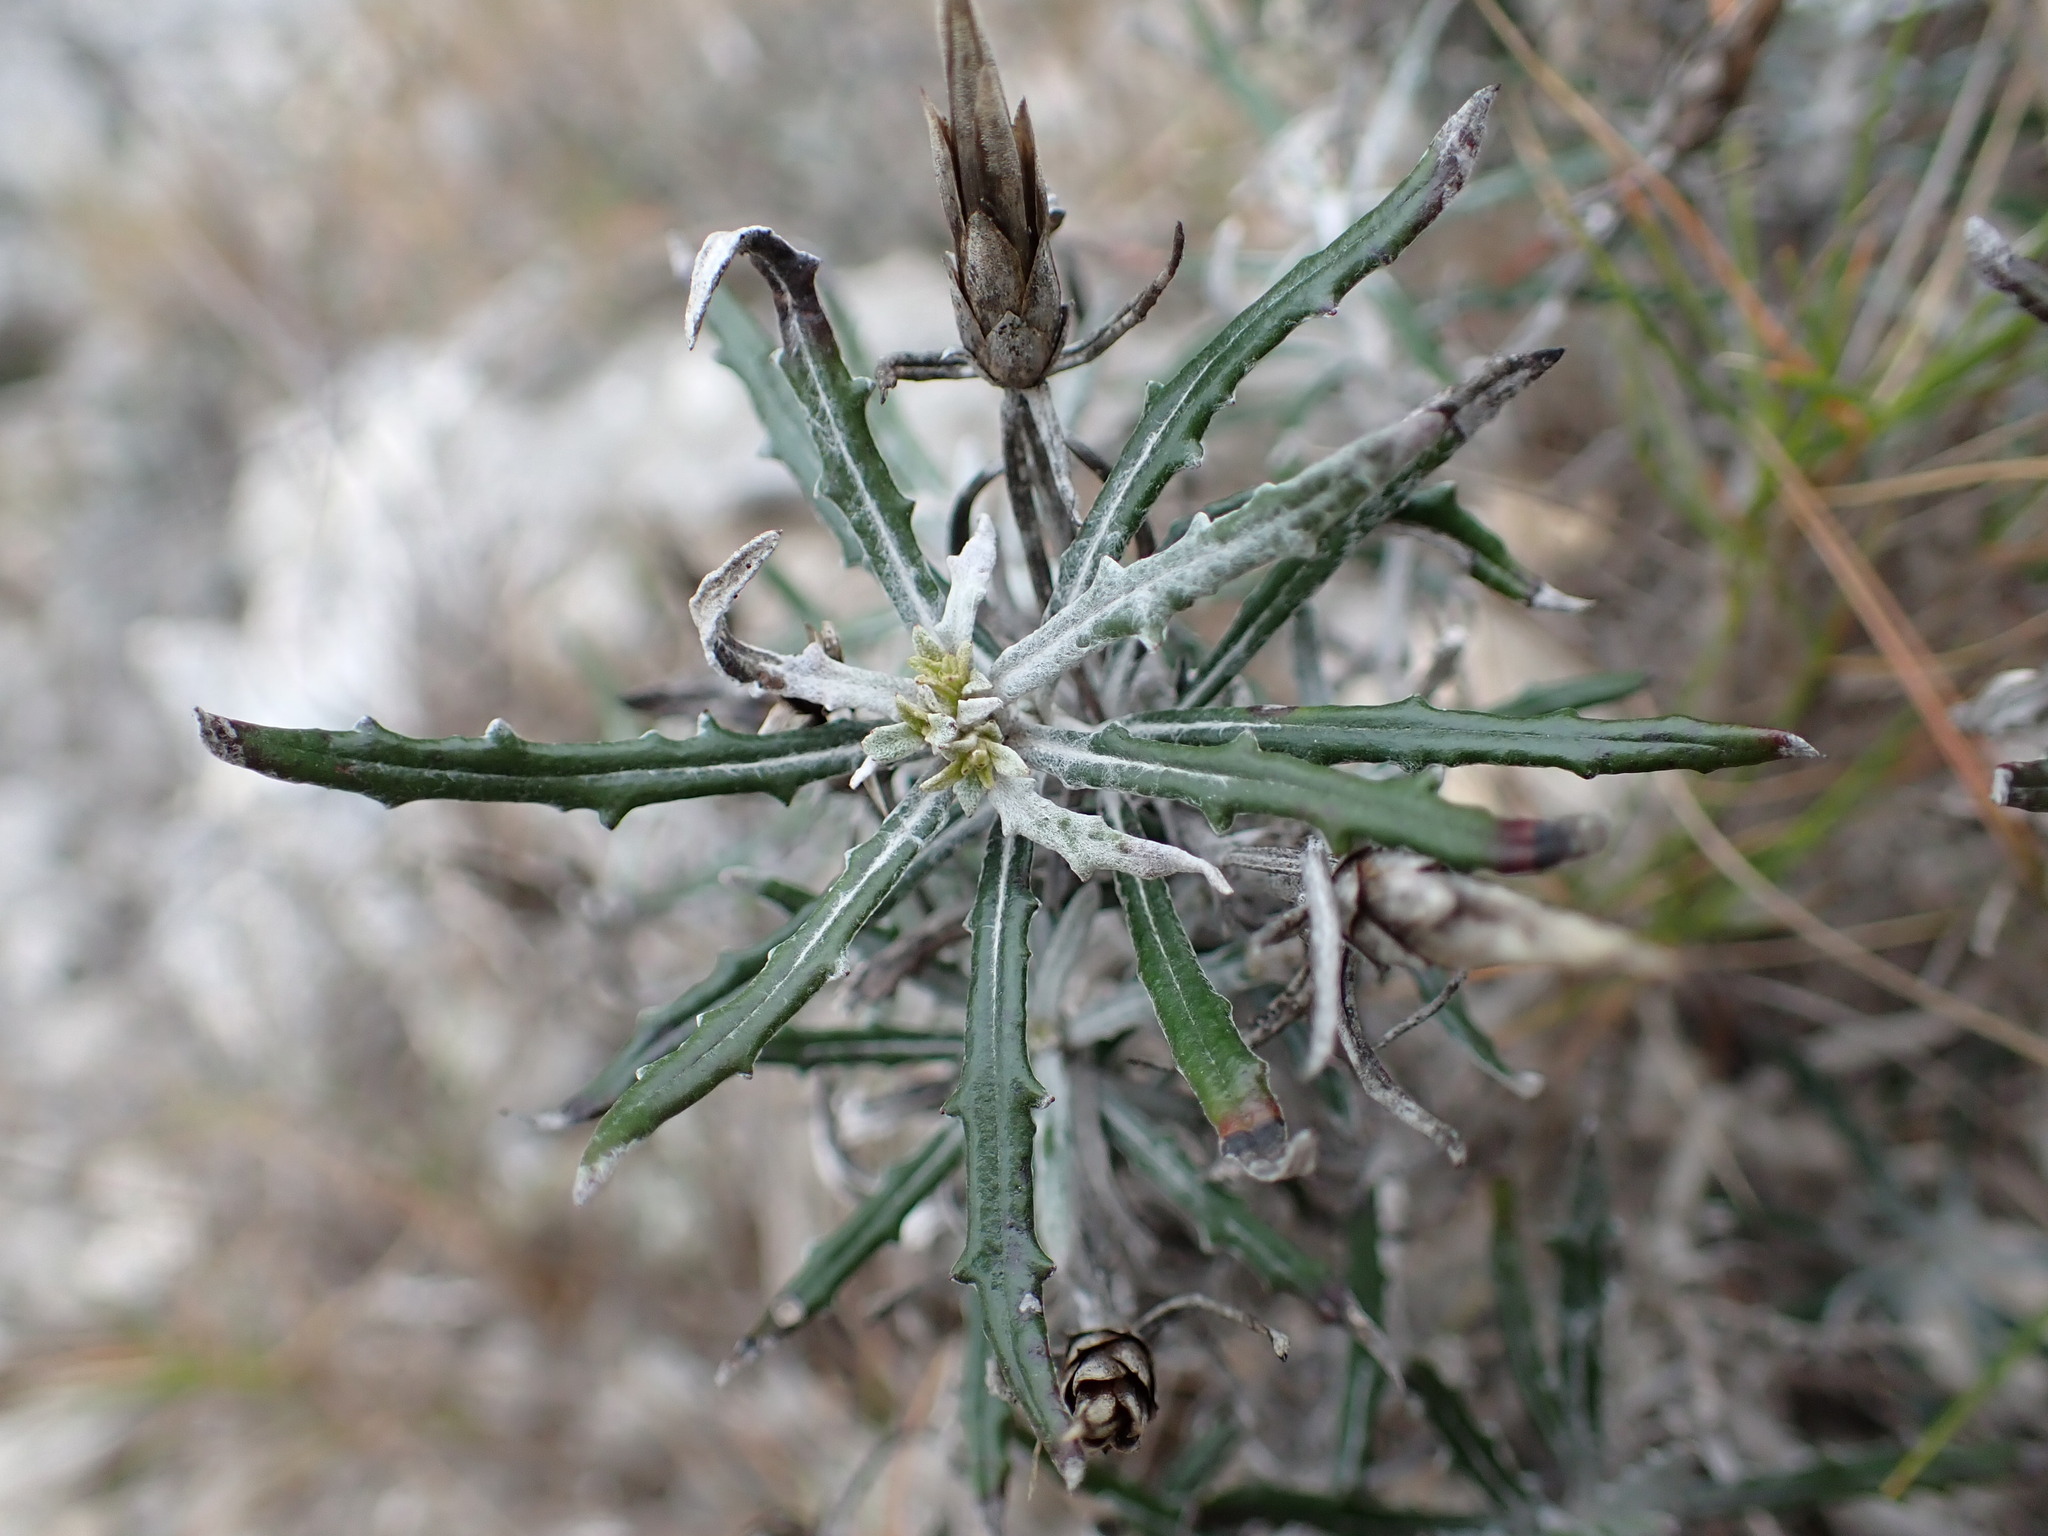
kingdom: Plantae
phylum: Tracheophyta
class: Magnoliopsida
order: Asterales
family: Asteraceae
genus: Staehelina
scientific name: Staehelina dubia
